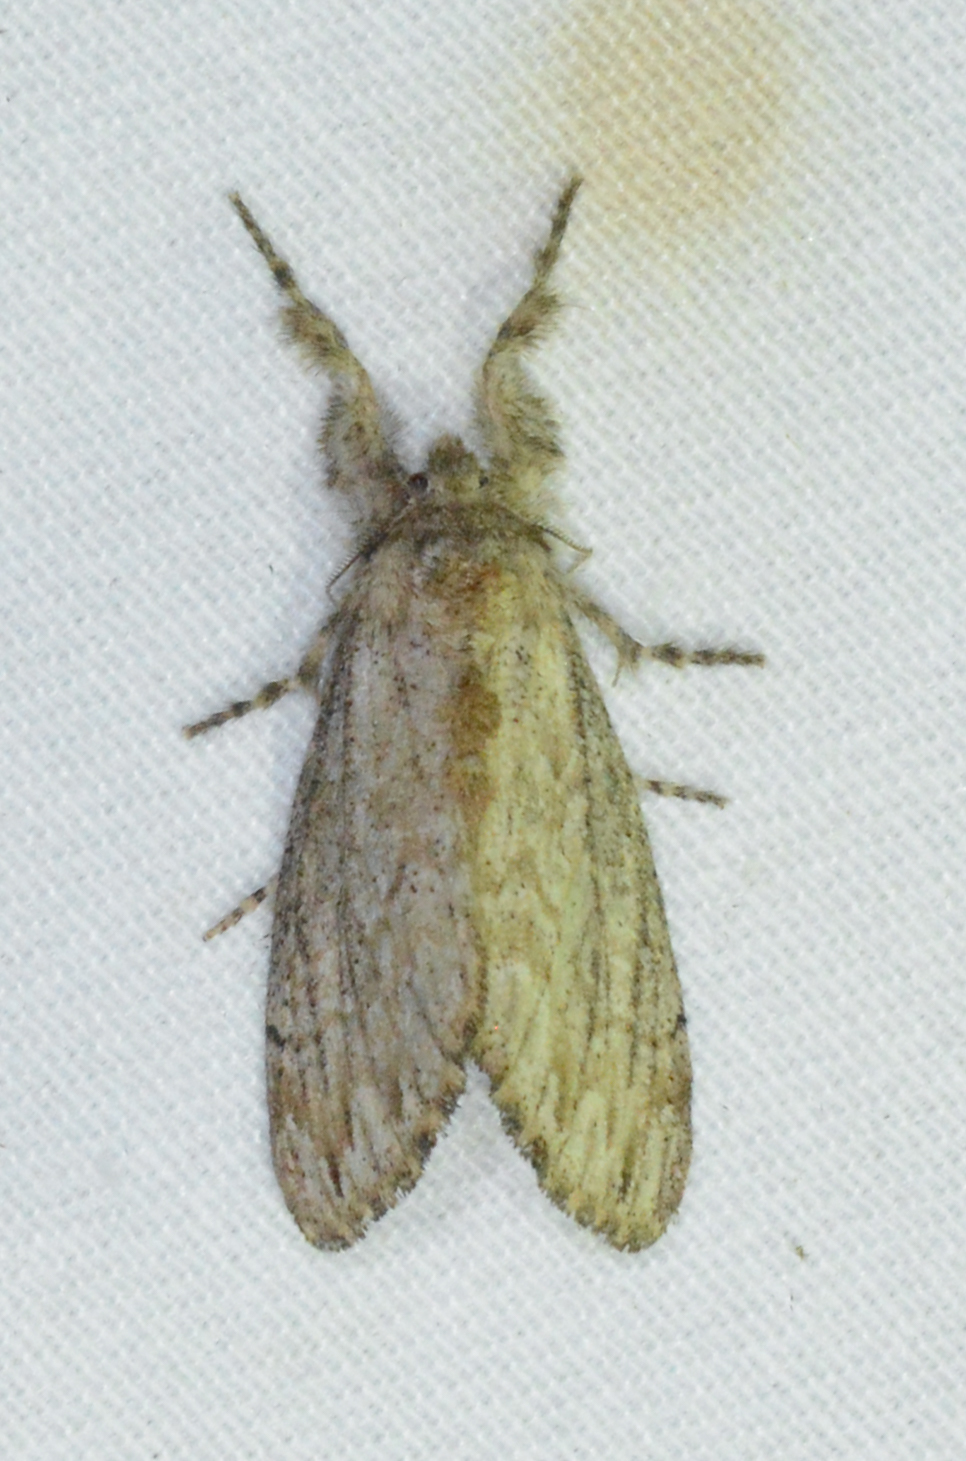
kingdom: Animalia
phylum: Arthropoda
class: Insecta
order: Lepidoptera
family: Erebidae
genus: Dasychira
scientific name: Dasychira atrivenosa
